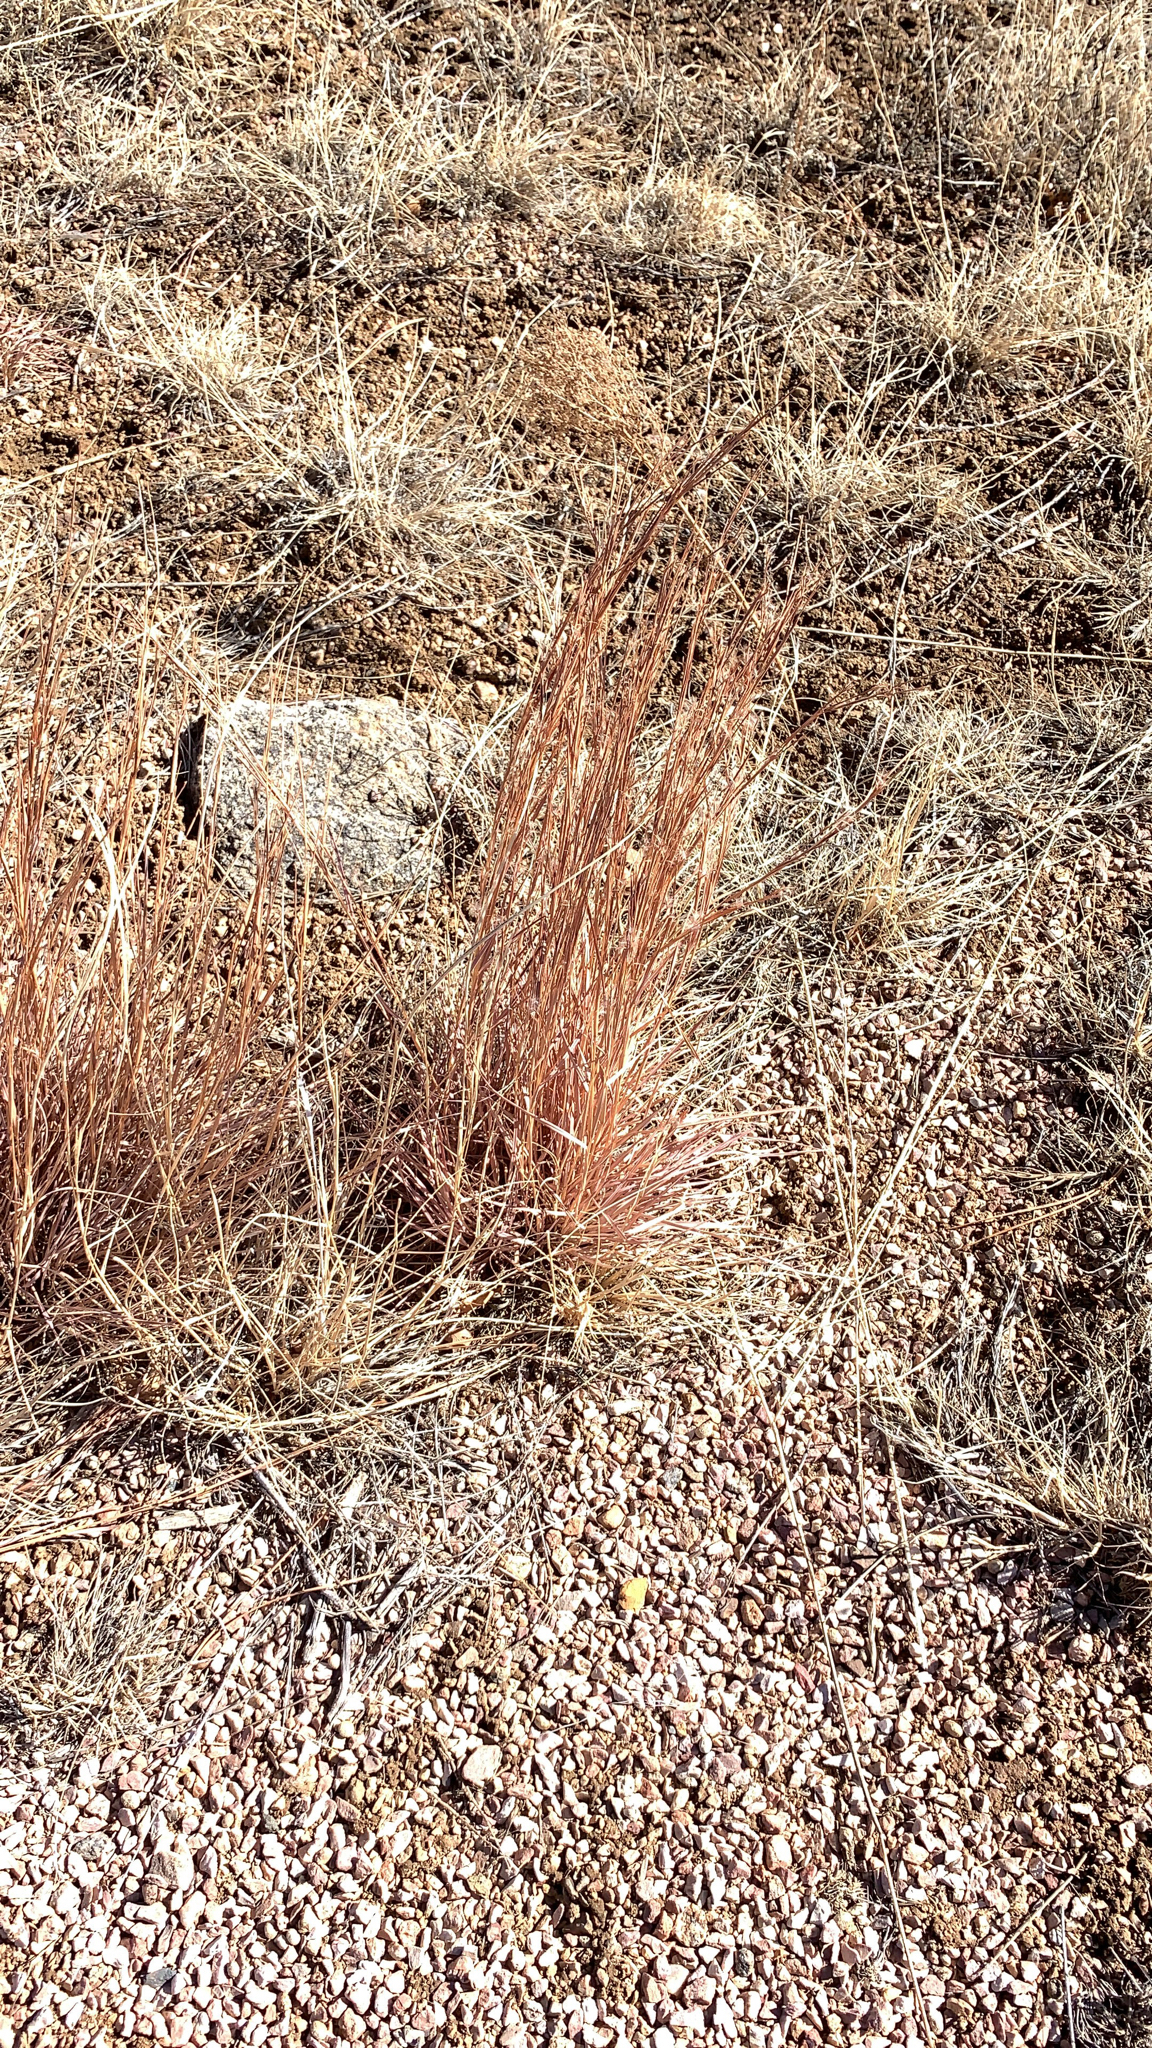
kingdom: Plantae
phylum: Tracheophyta
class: Liliopsida
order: Poales
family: Poaceae
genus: Schizachyrium
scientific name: Schizachyrium scoparium
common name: Little bluestem
